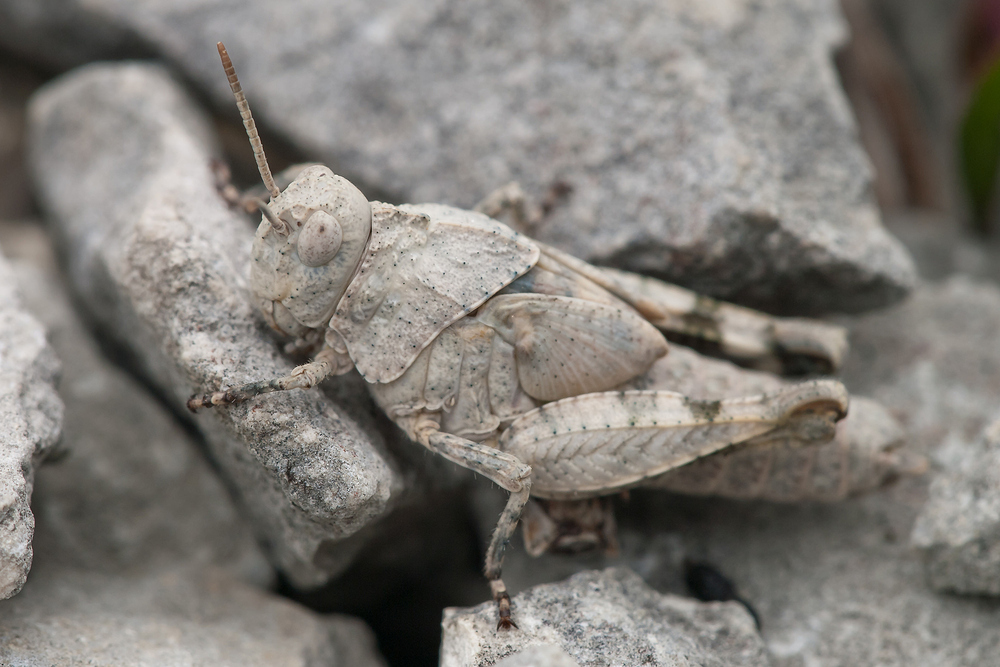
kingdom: Animalia
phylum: Arthropoda
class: Insecta
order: Orthoptera
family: Acrididae
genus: Oedipoda
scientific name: Oedipoda caerulescens
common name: Blue-winged grasshopper
